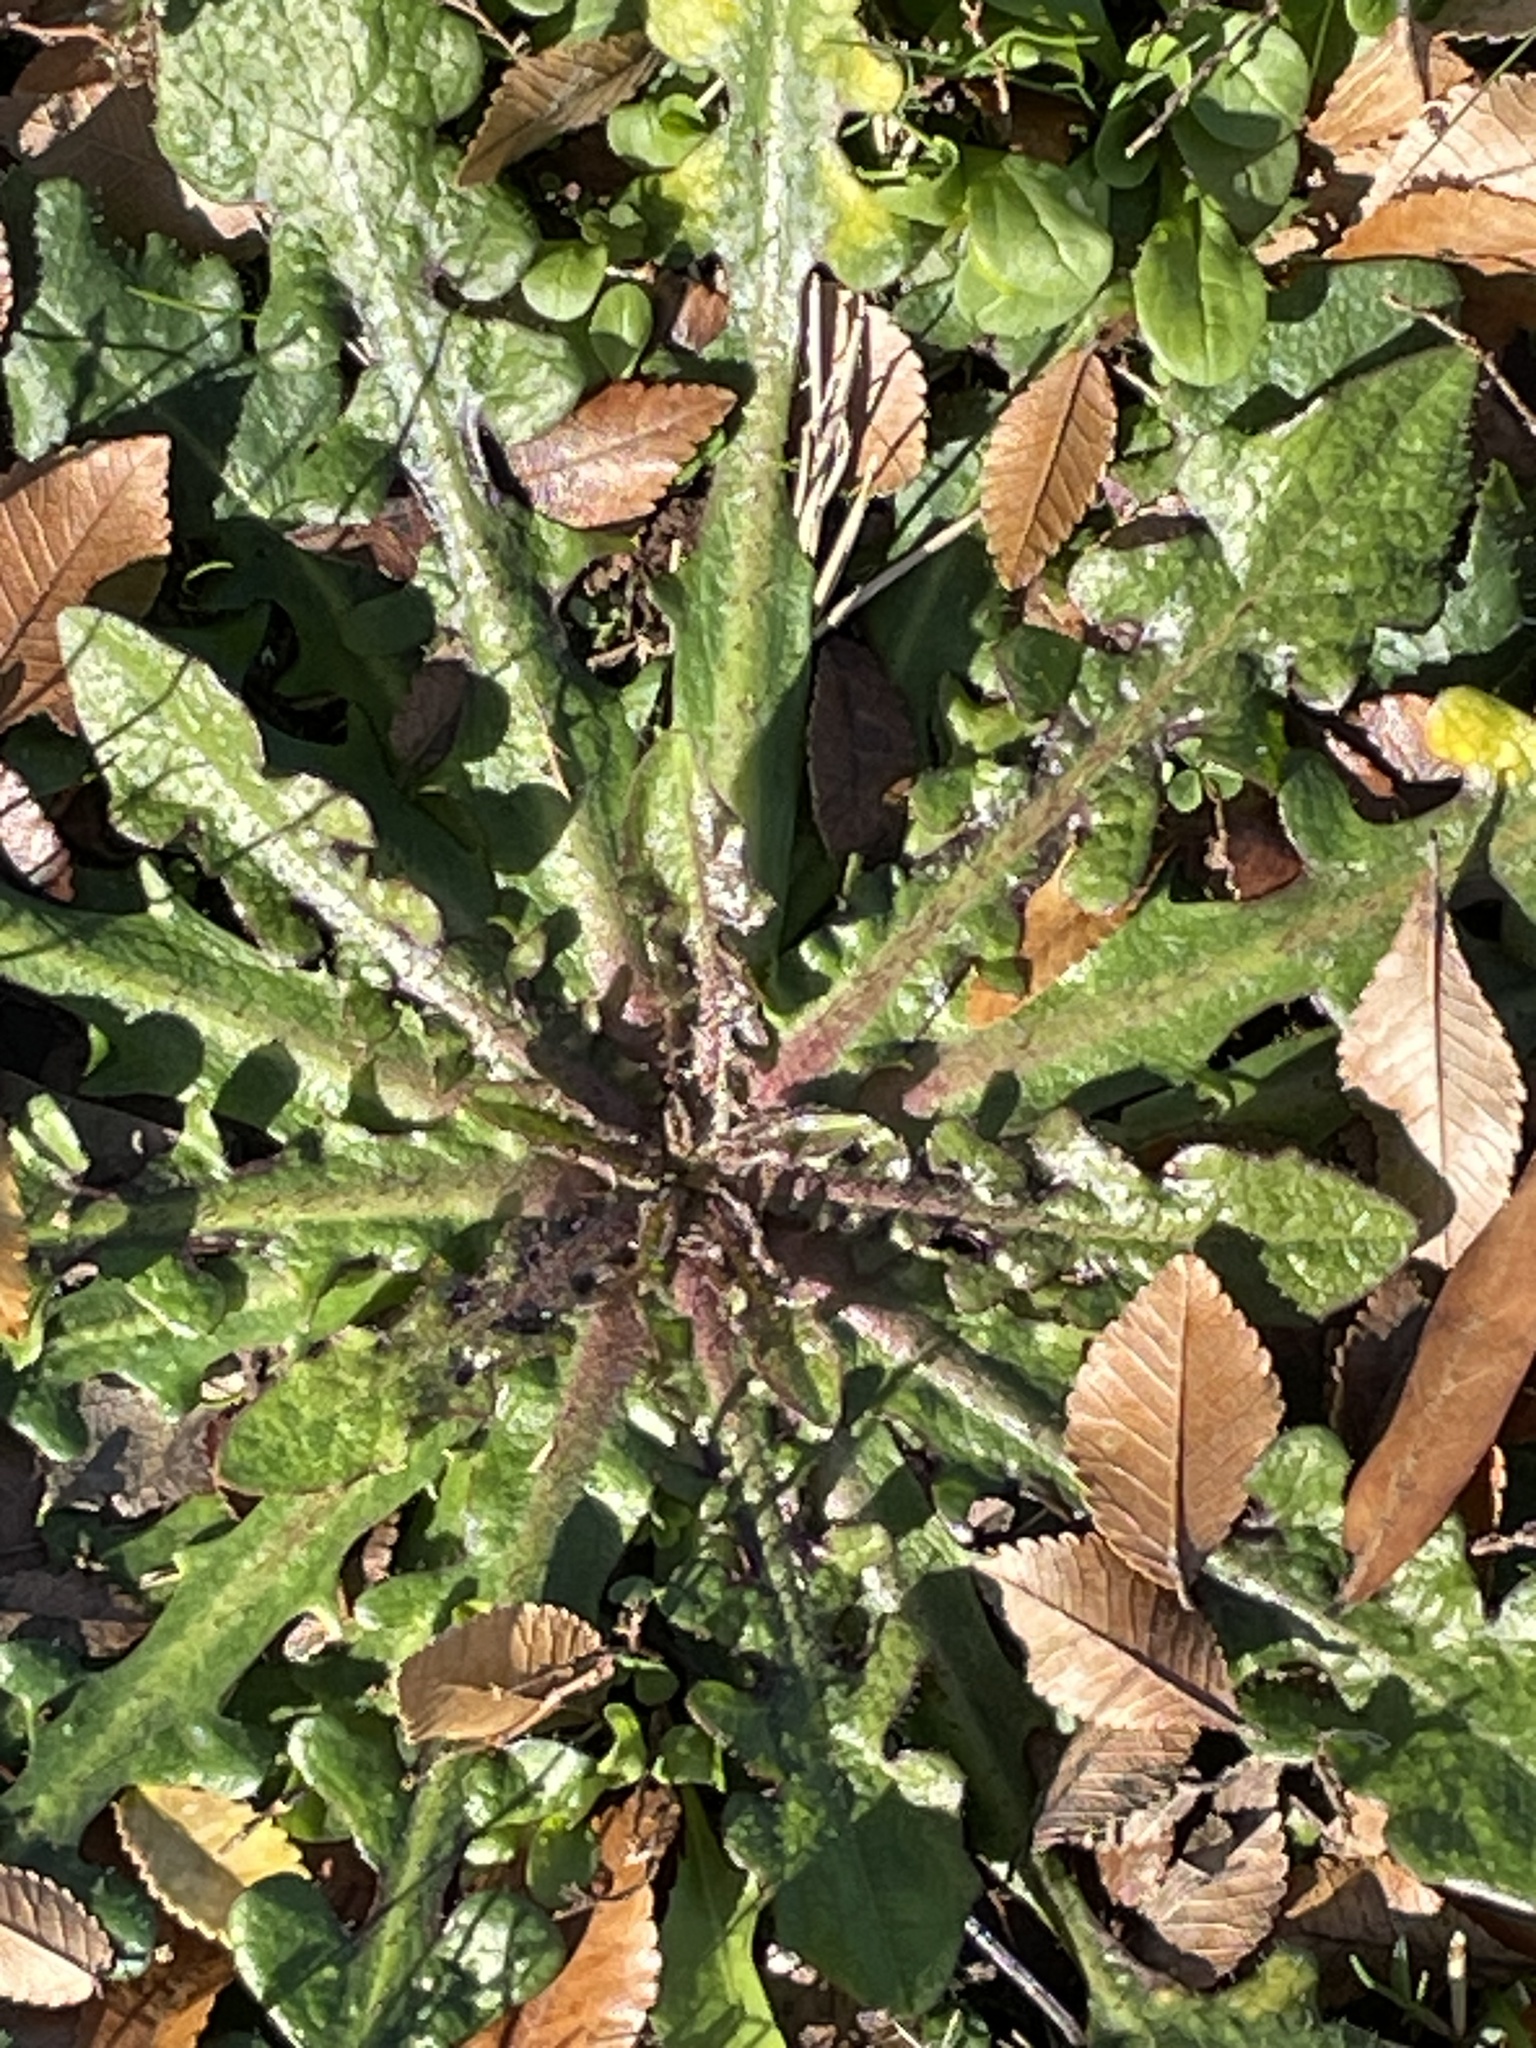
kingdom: Plantae
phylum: Tracheophyta
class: Magnoliopsida
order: Asterales
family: Asteraceae
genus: Hypochaeris
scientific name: Hypochaeris radicata
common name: Flatweed
